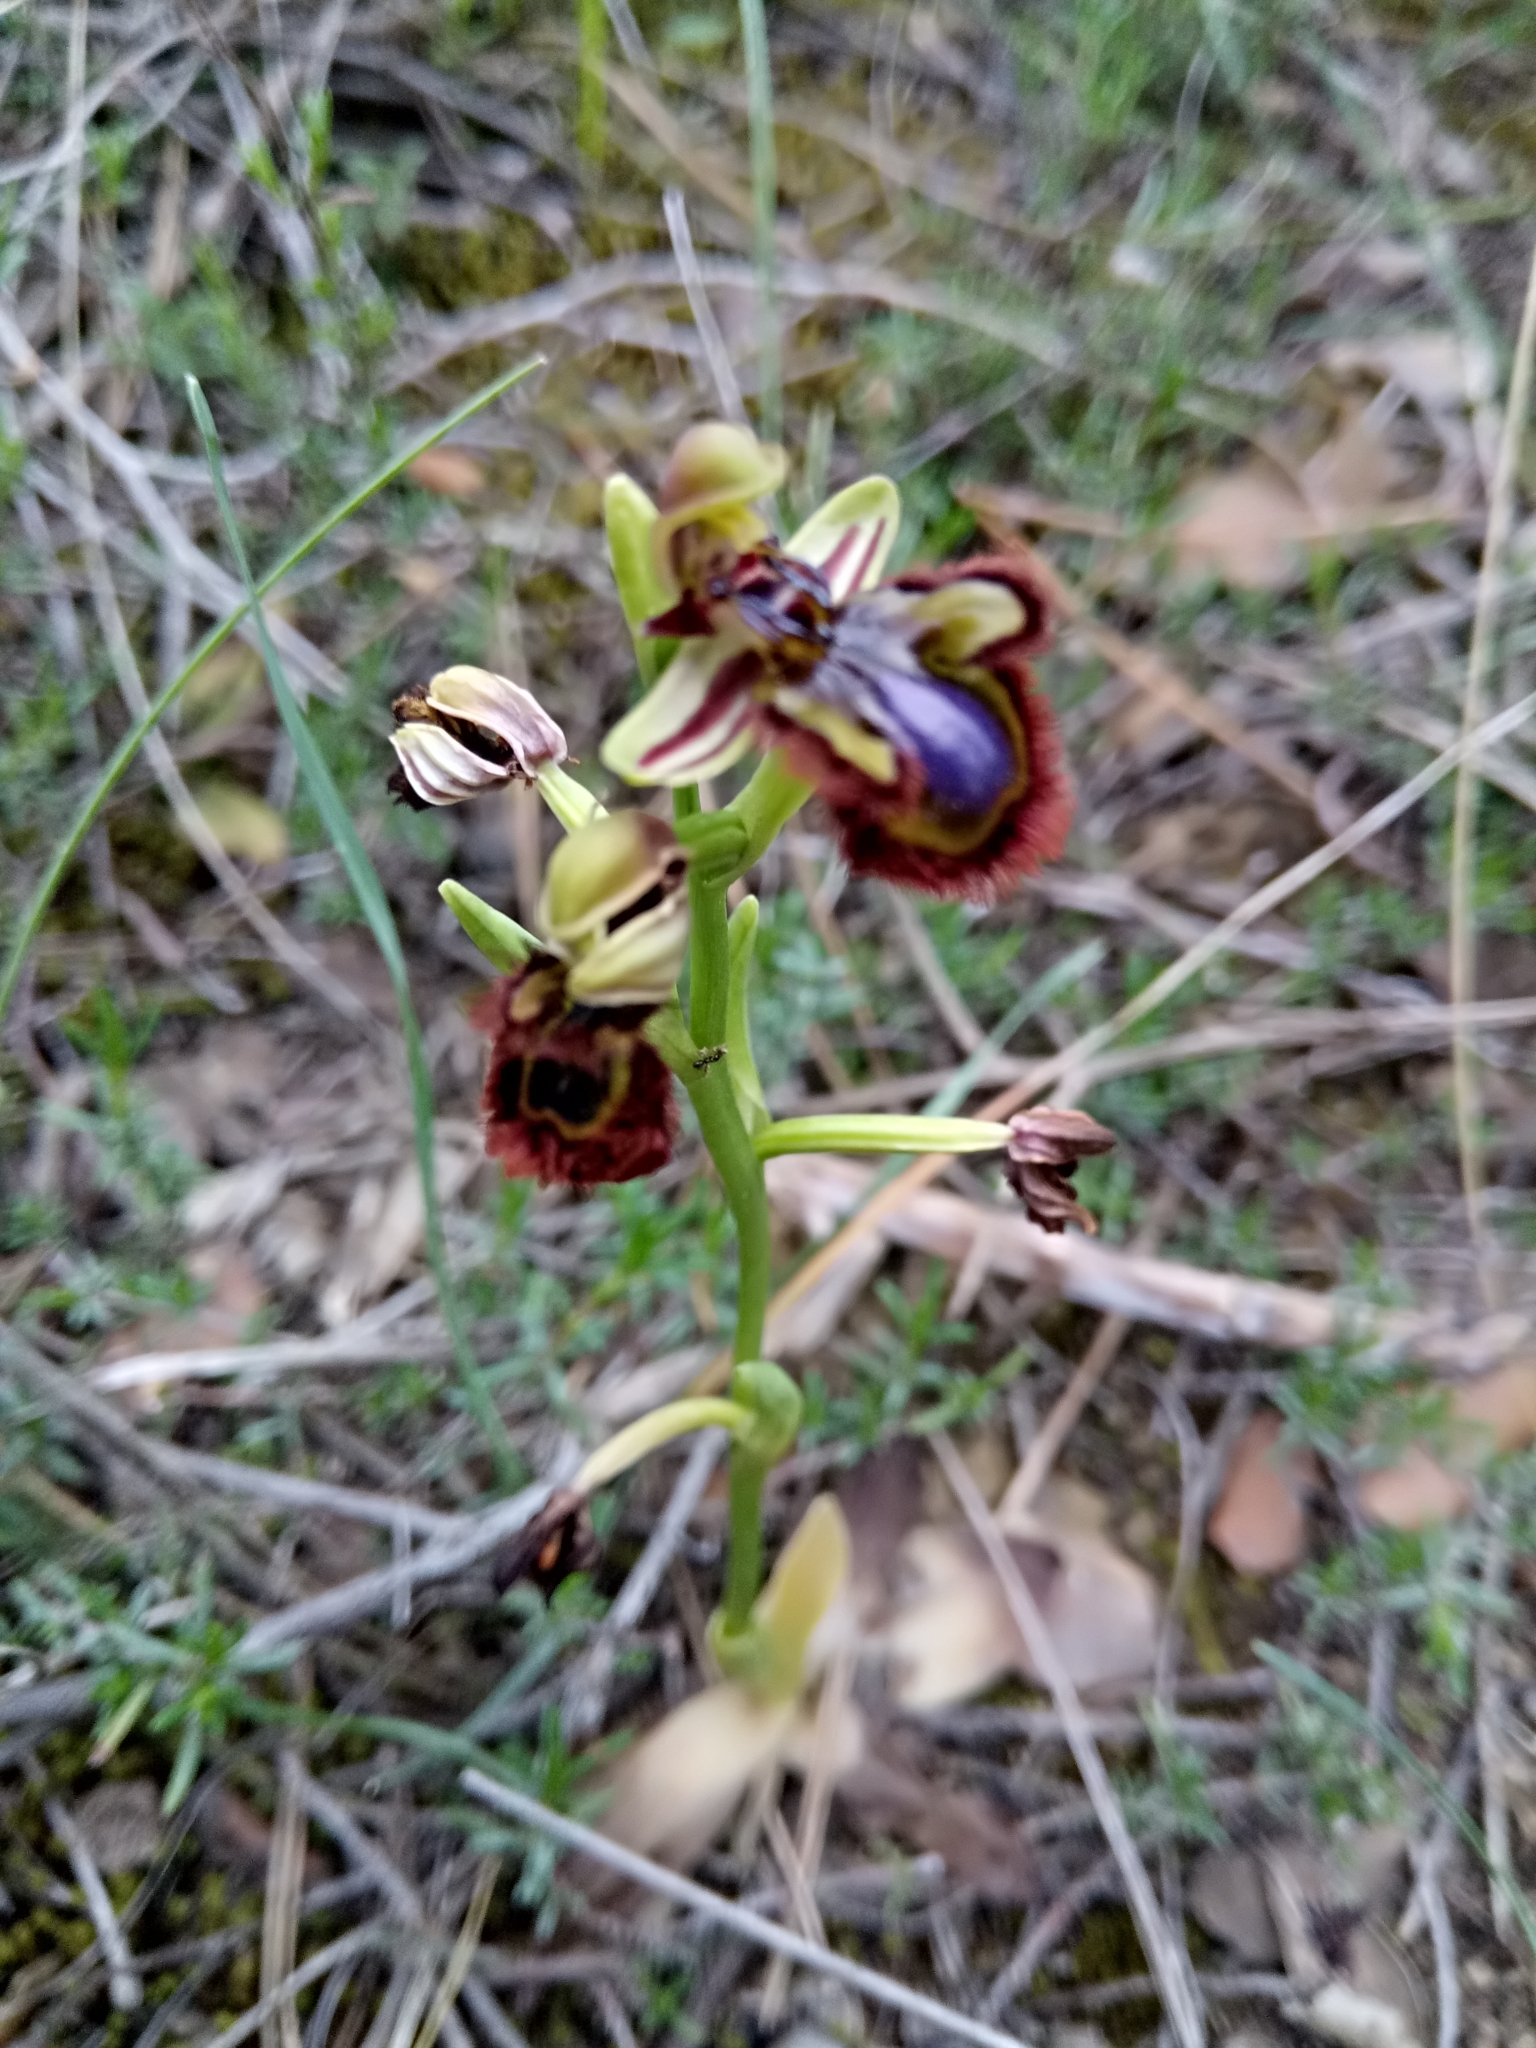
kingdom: Plantae
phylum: Tracheophyta
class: Liliopsida
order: Asparagales
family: Orchidaceae
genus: Ophrys
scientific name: Ophrys speculum
